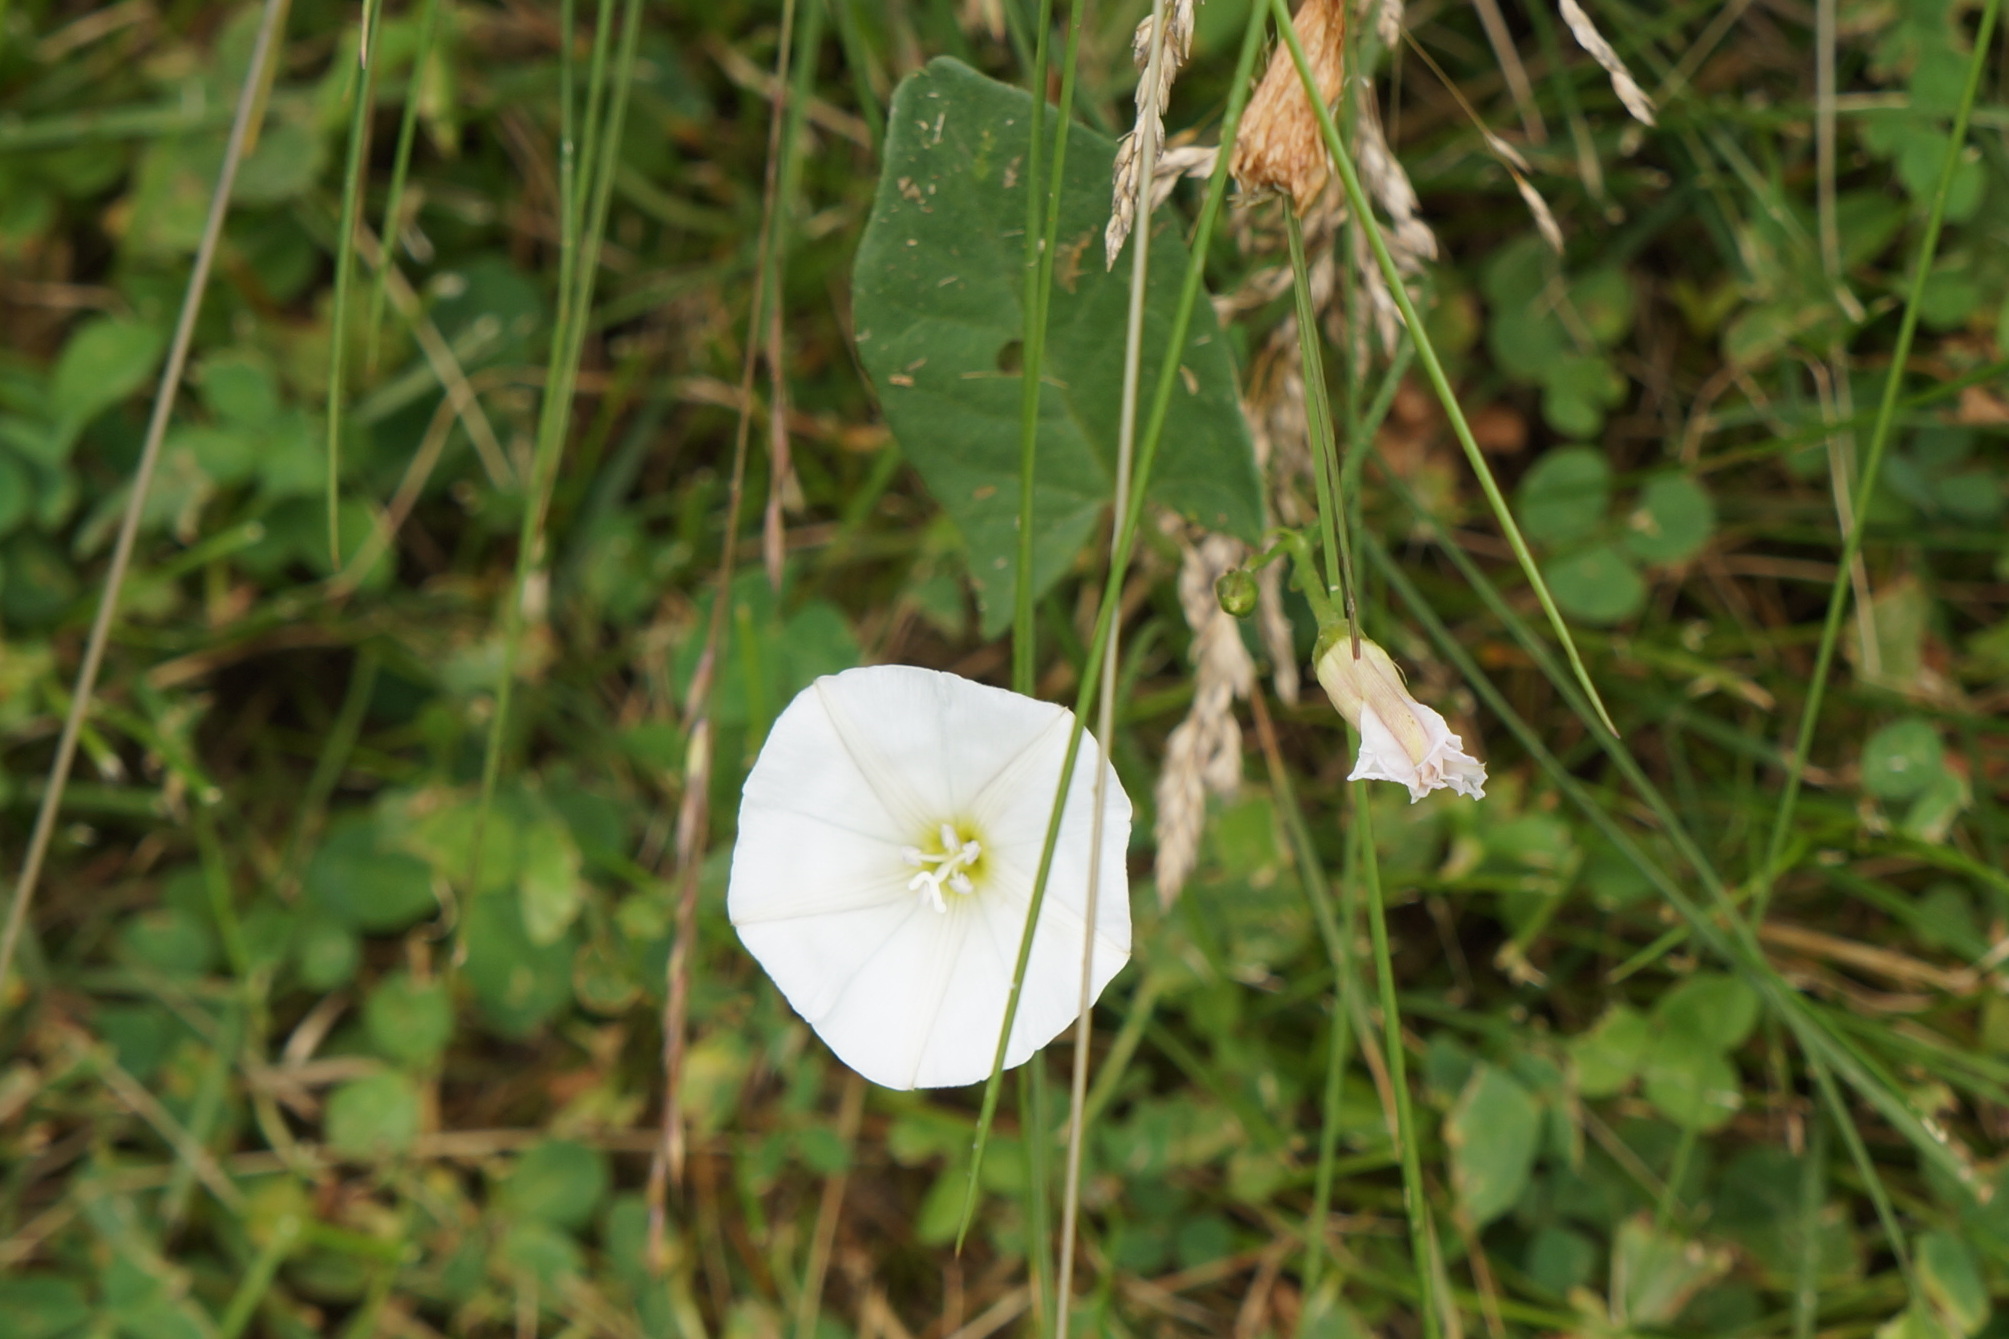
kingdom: Plantae
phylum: Tracheophyta
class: Magnoliopsida
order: Solanales
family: Convolvulaceae
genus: Convolvulus
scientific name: Convolvulus arvensis
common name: Field bindweed
